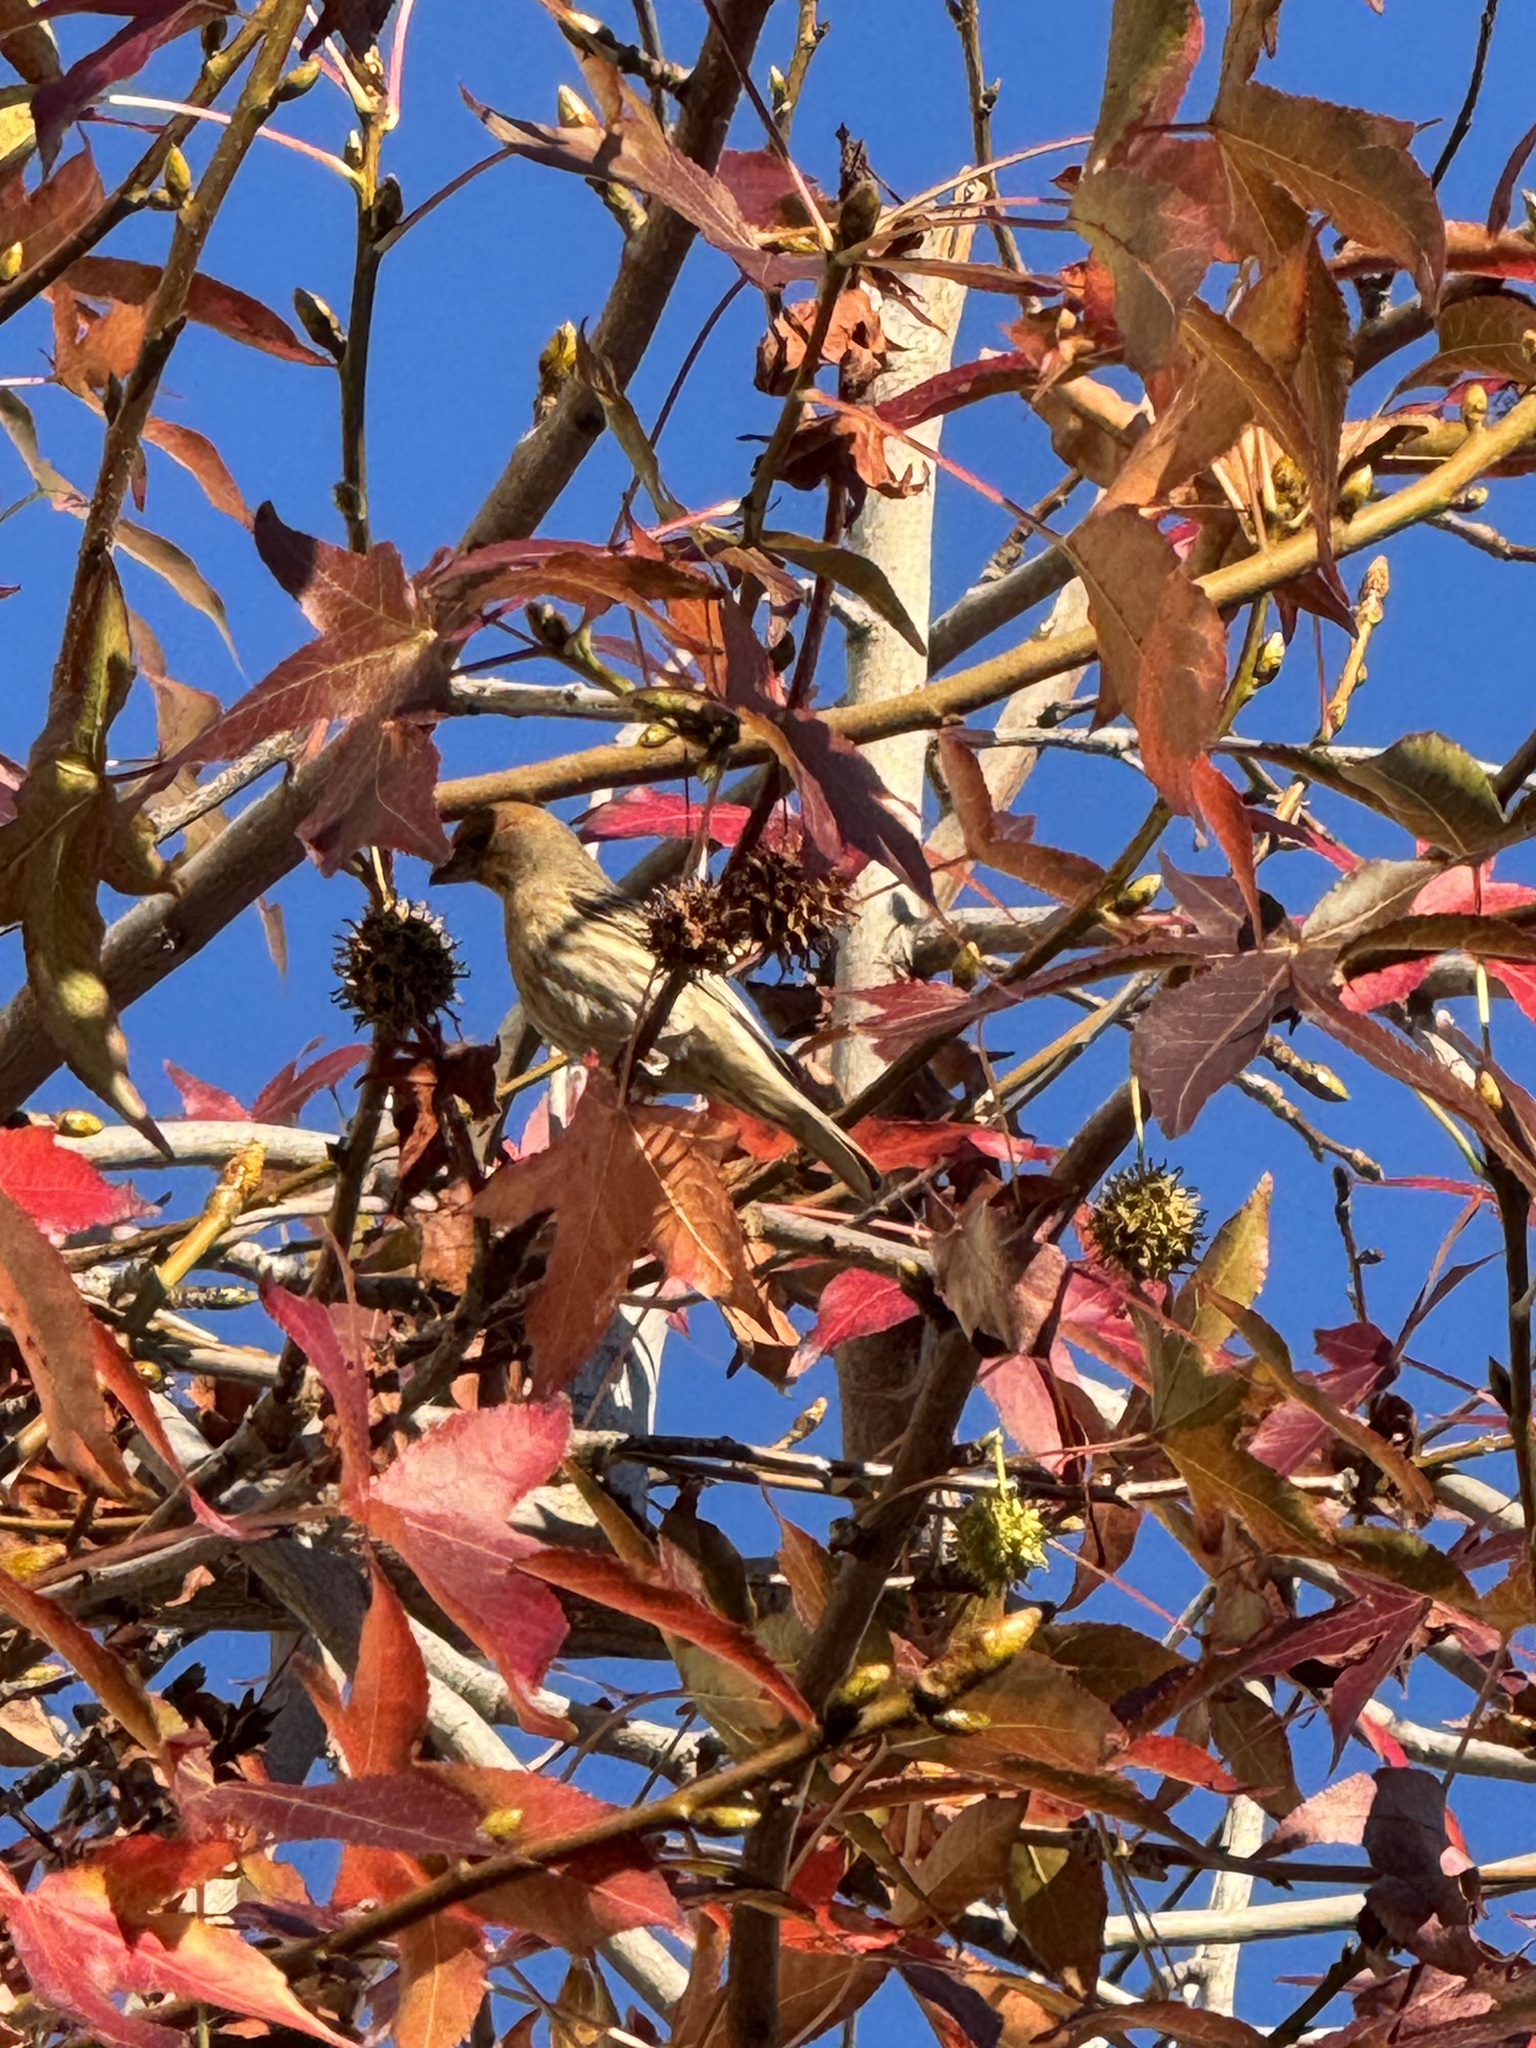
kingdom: Animalia
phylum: Chordata
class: Aves
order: Passeriformes
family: Fringillidae
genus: Haemorhous
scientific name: Haemorhous mexicanus
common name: House finch
